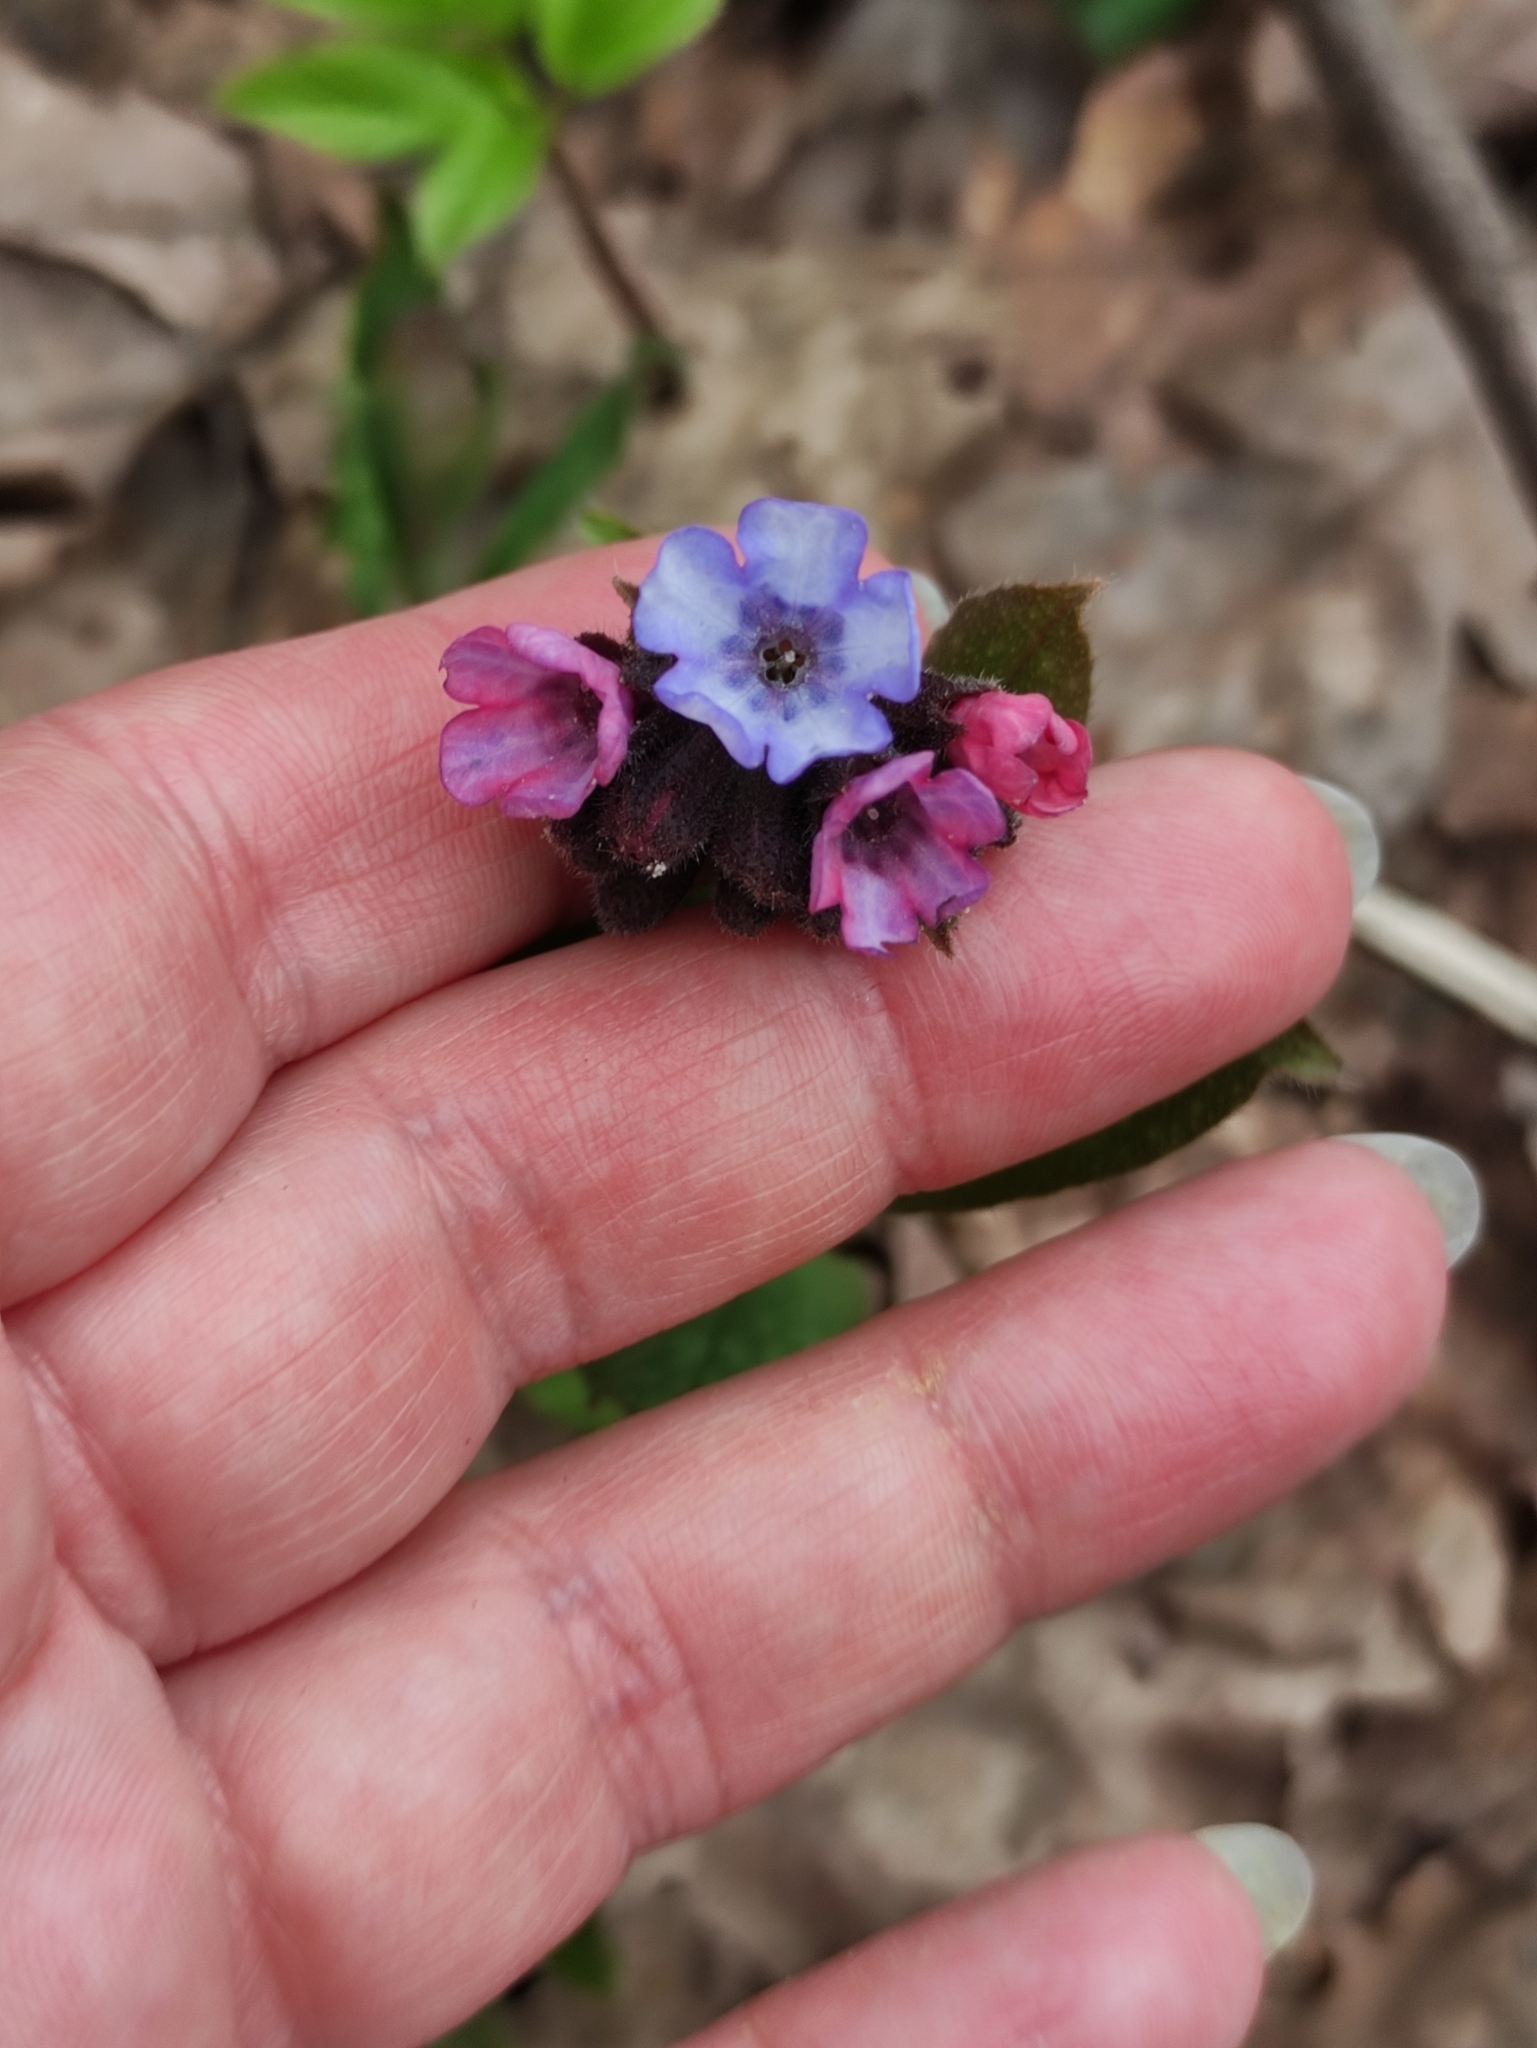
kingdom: Plantae
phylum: Tracheophyta
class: Magnoliopsida
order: Boraginales
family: Boraginaceae
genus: Pulmonaria
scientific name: Pulmonaria obscura
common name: Suffolk lungwort
